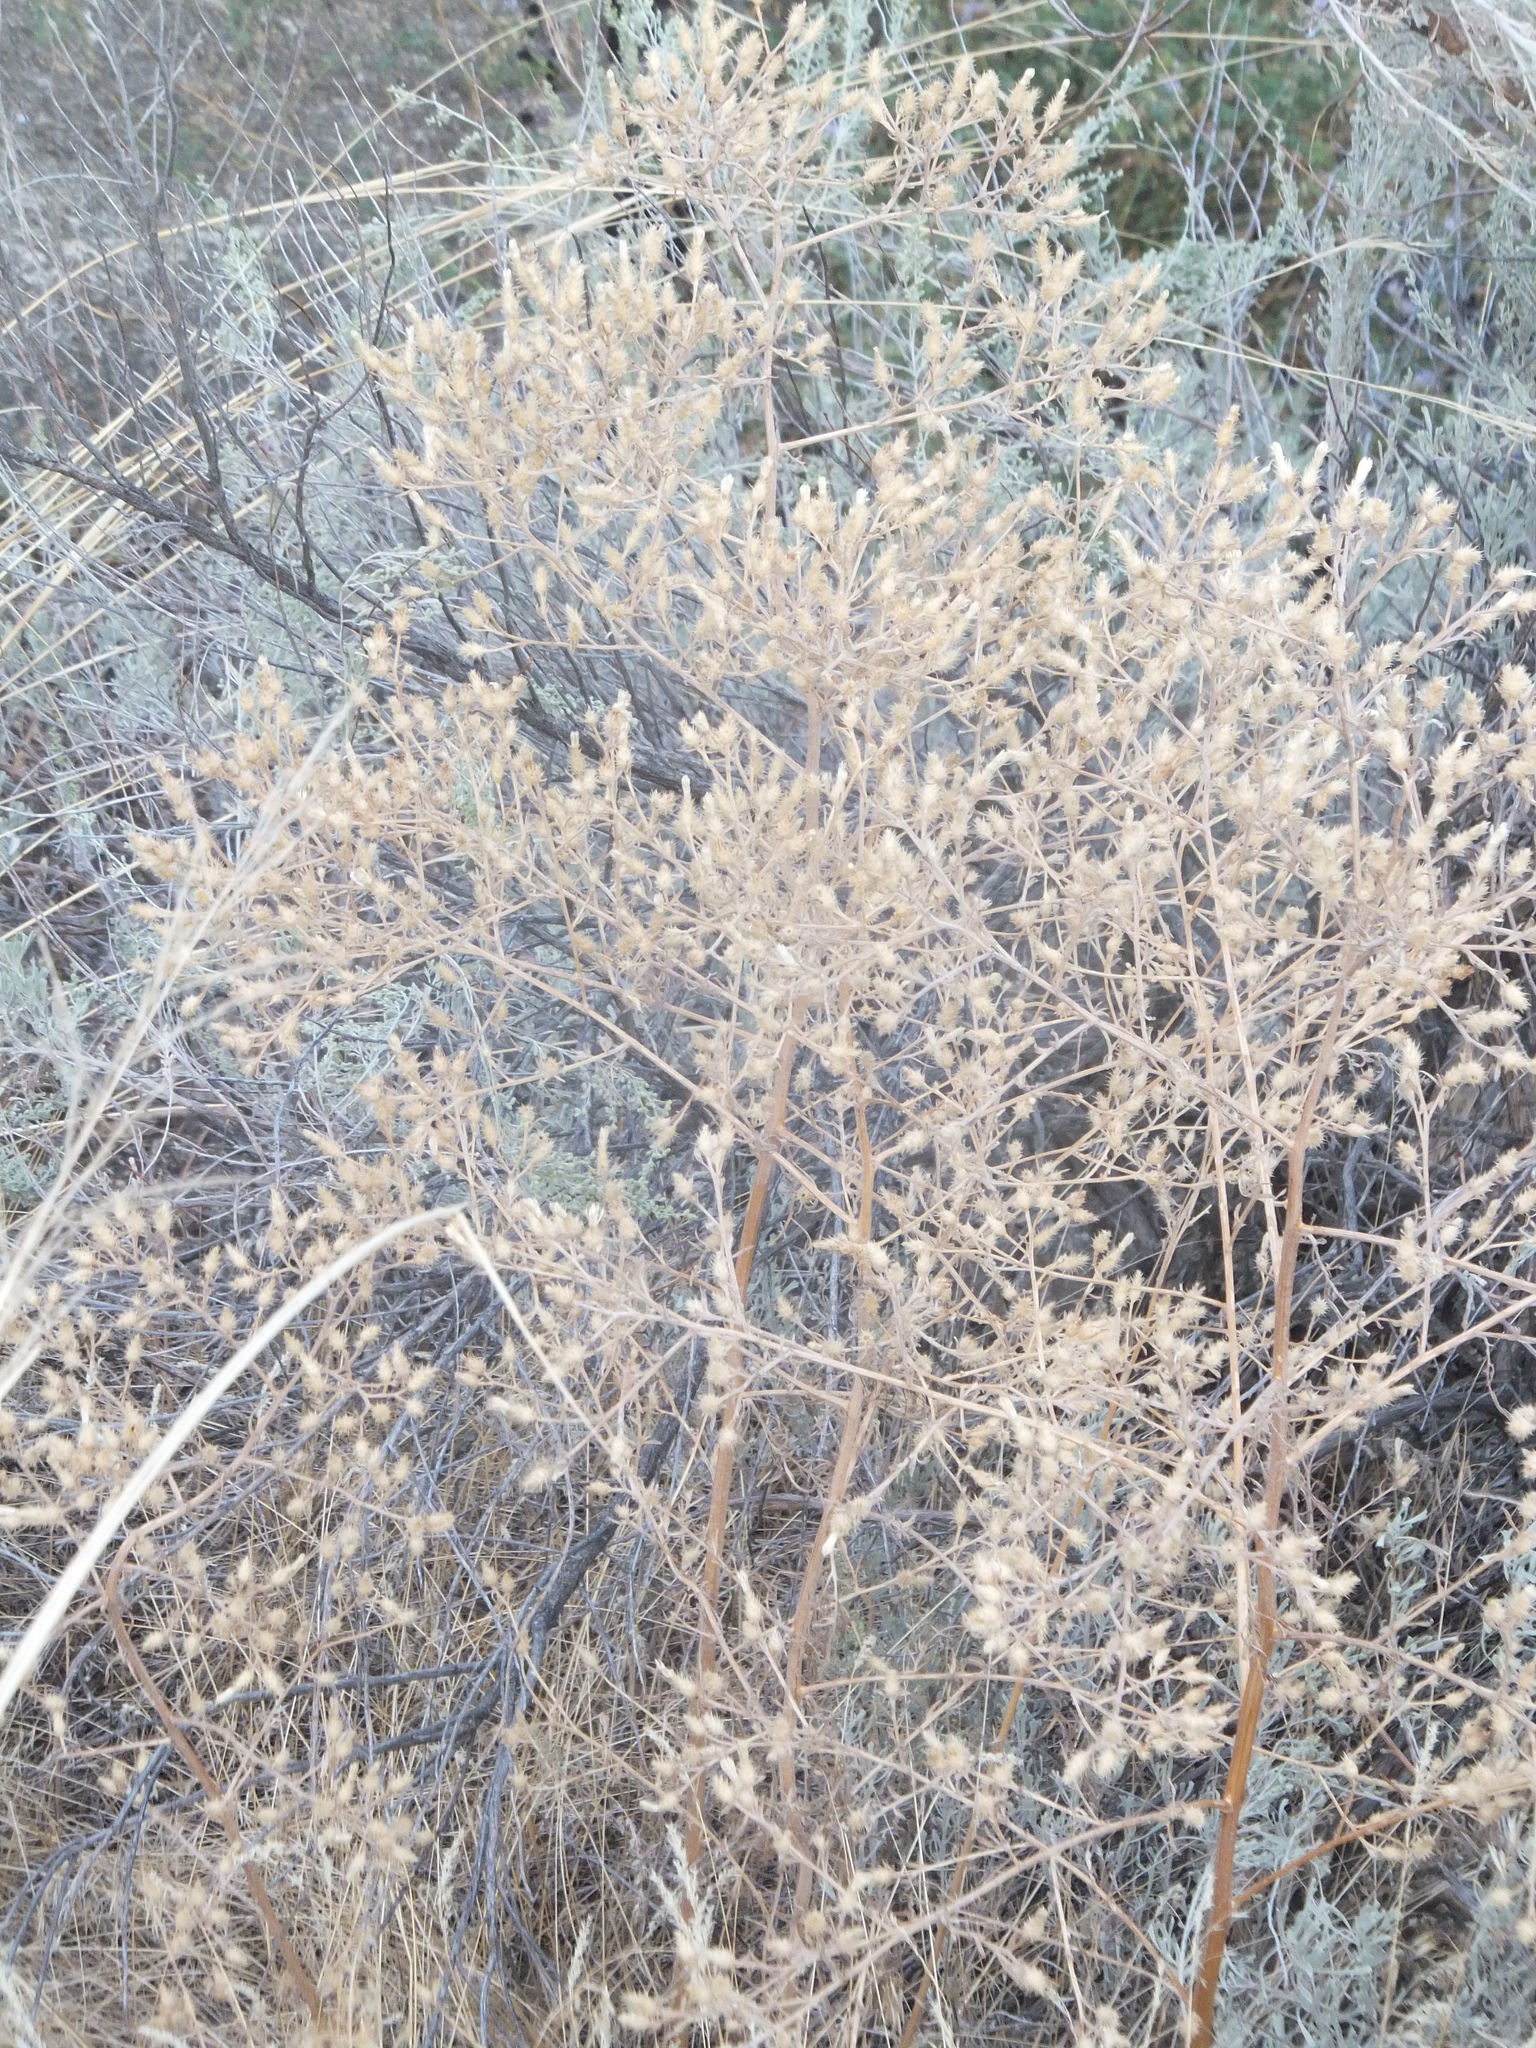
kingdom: Plantae
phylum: Tracheophyta
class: Magnoliopsida
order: Asterales
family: Asteraceae
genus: Centaurea
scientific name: Centaurea diffusa
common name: Diffuse knapweed
